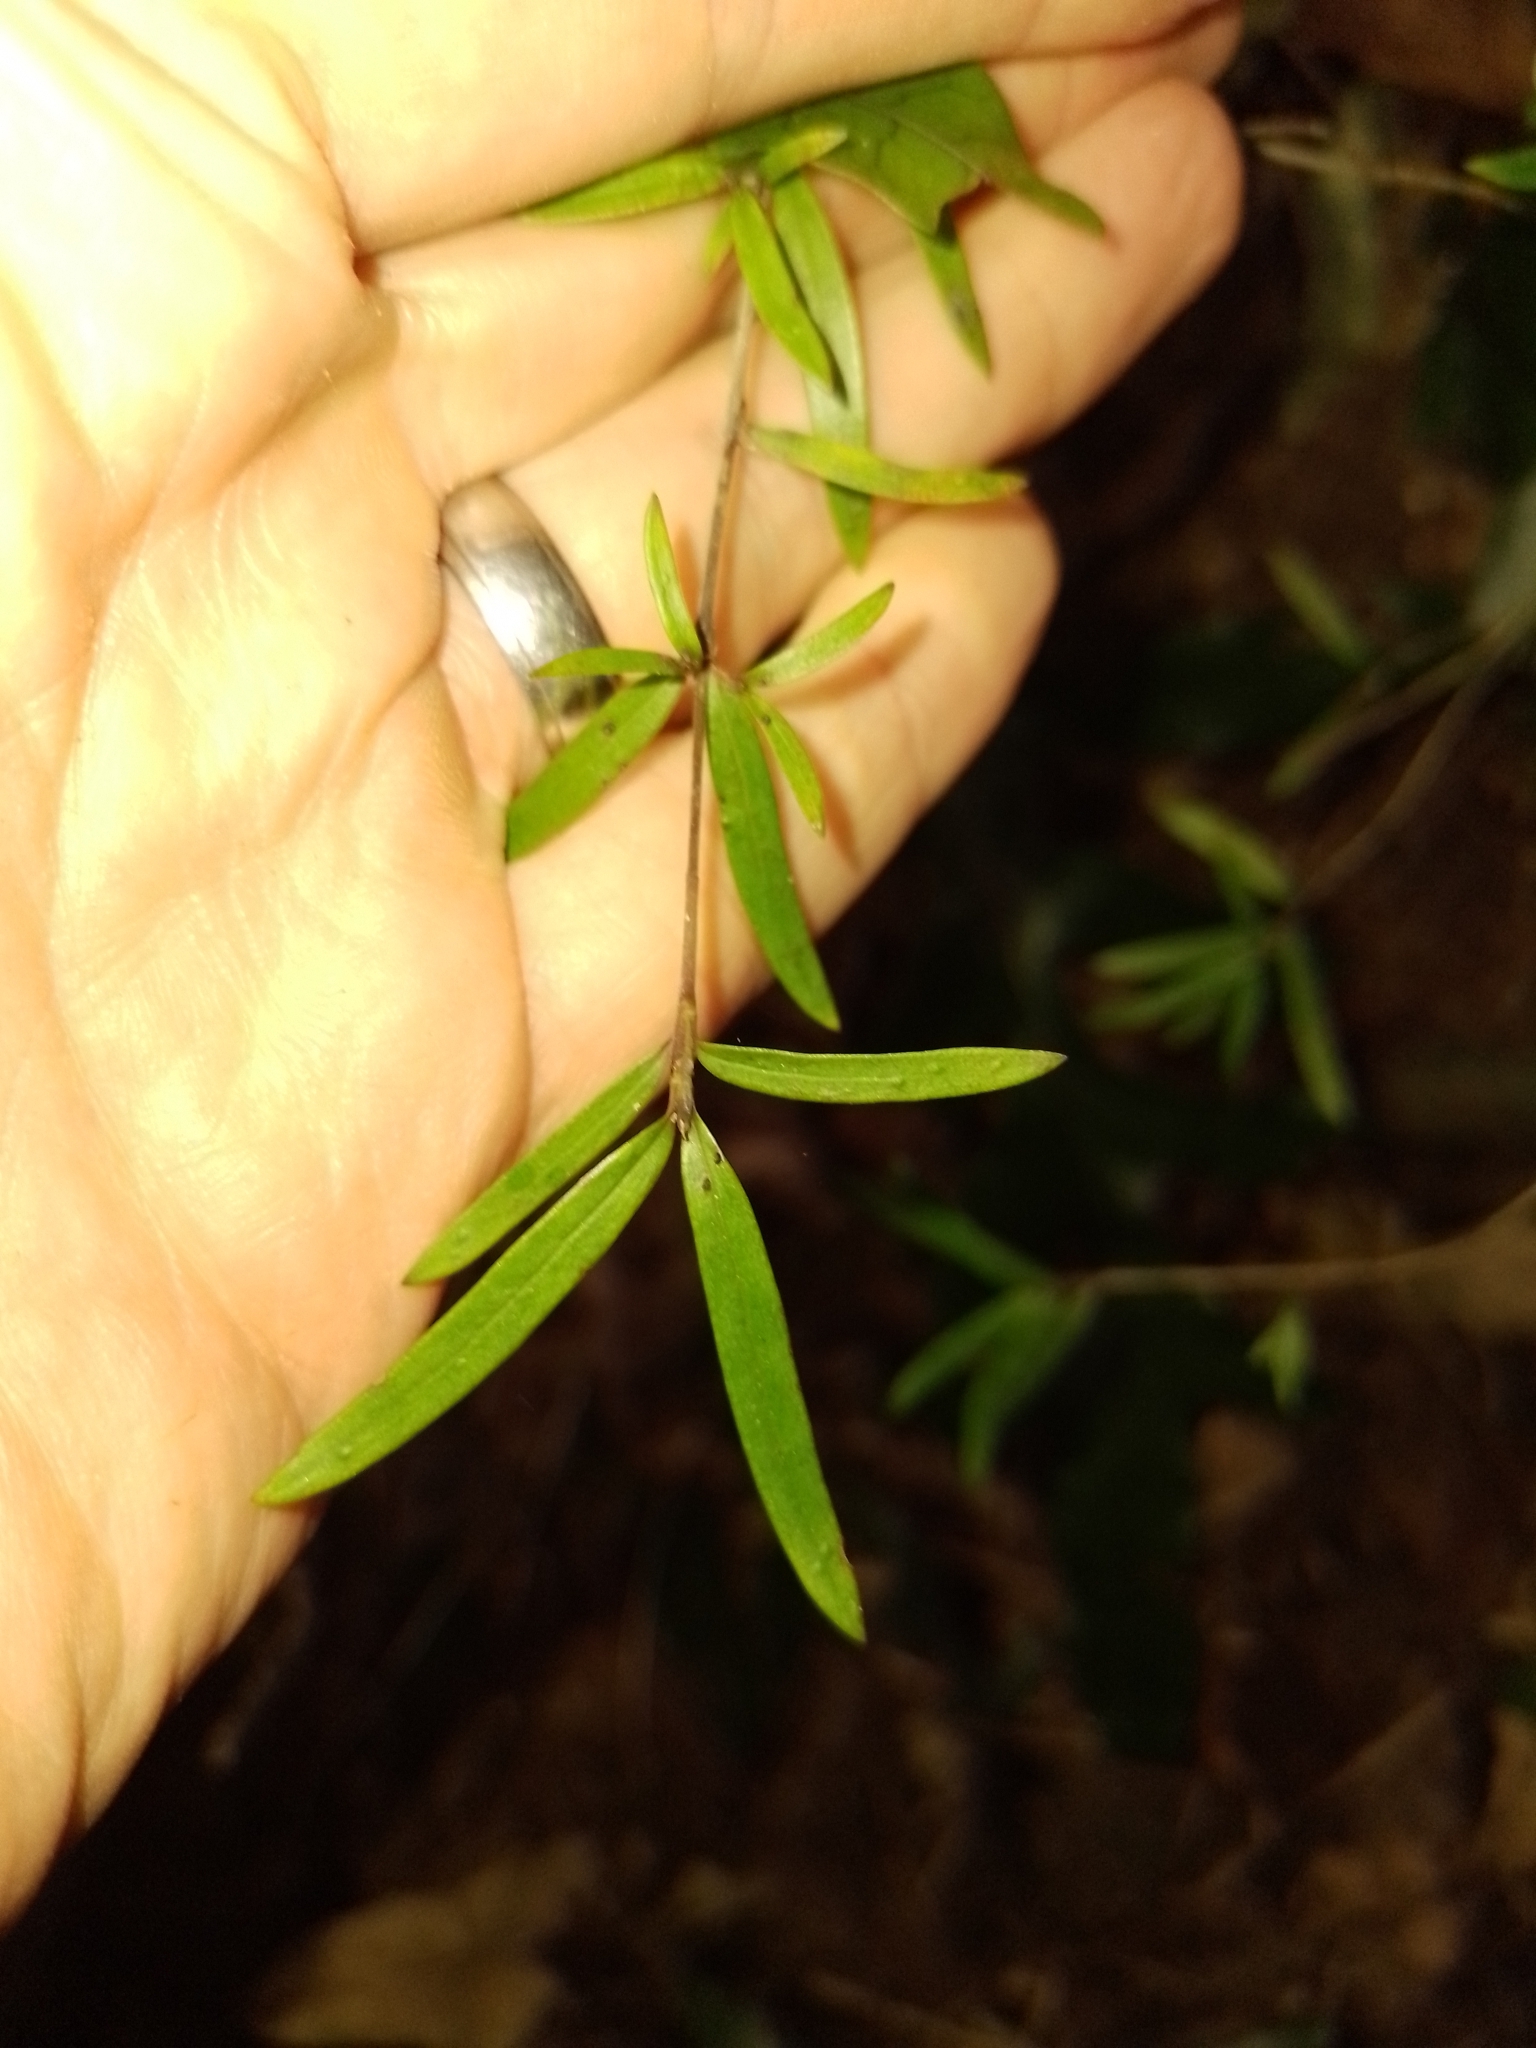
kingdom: Plantae
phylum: Tracheophyta
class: Magnoliopsida
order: Gentianales
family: Rubiaceae
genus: Coprosma
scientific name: Coprosma linariifolia
